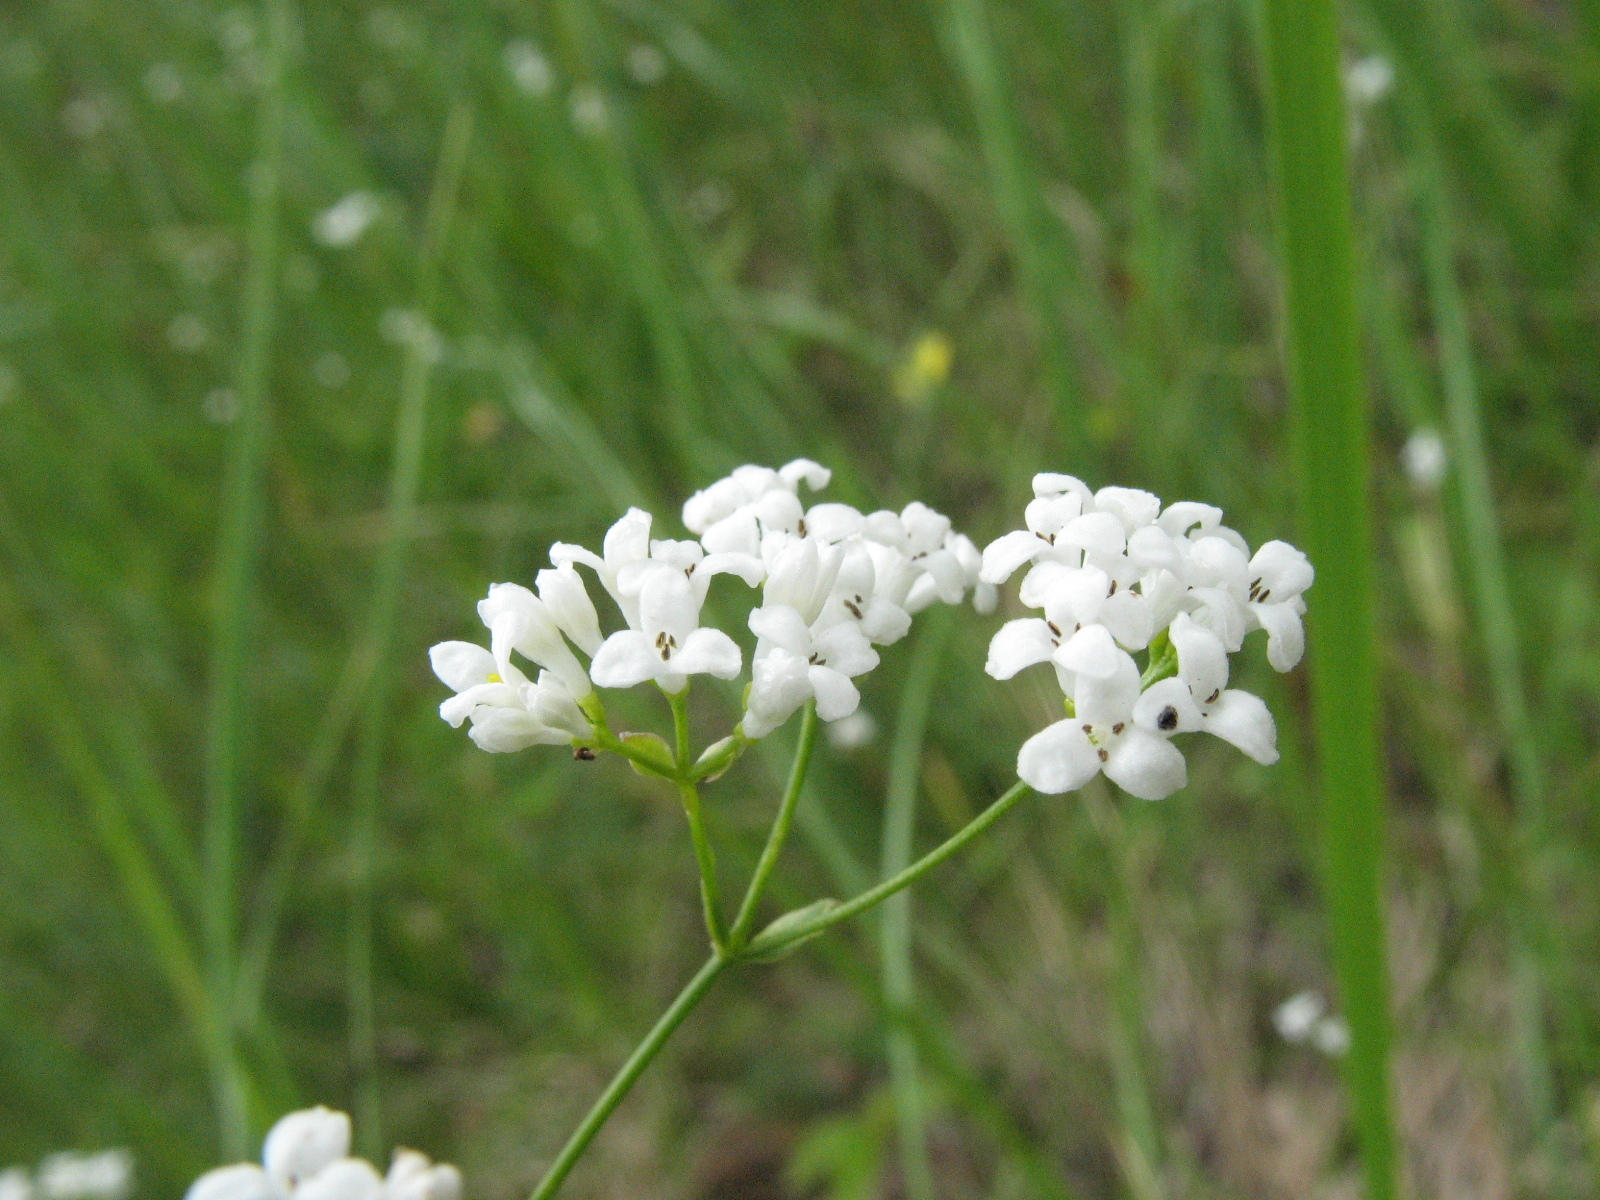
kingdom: Plantae
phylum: Tracheophyta
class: Magnoliopsida
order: Gentianales
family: Rubiaceae
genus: Asperula
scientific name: Asperula tinctoria
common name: Dyer's woodruff
